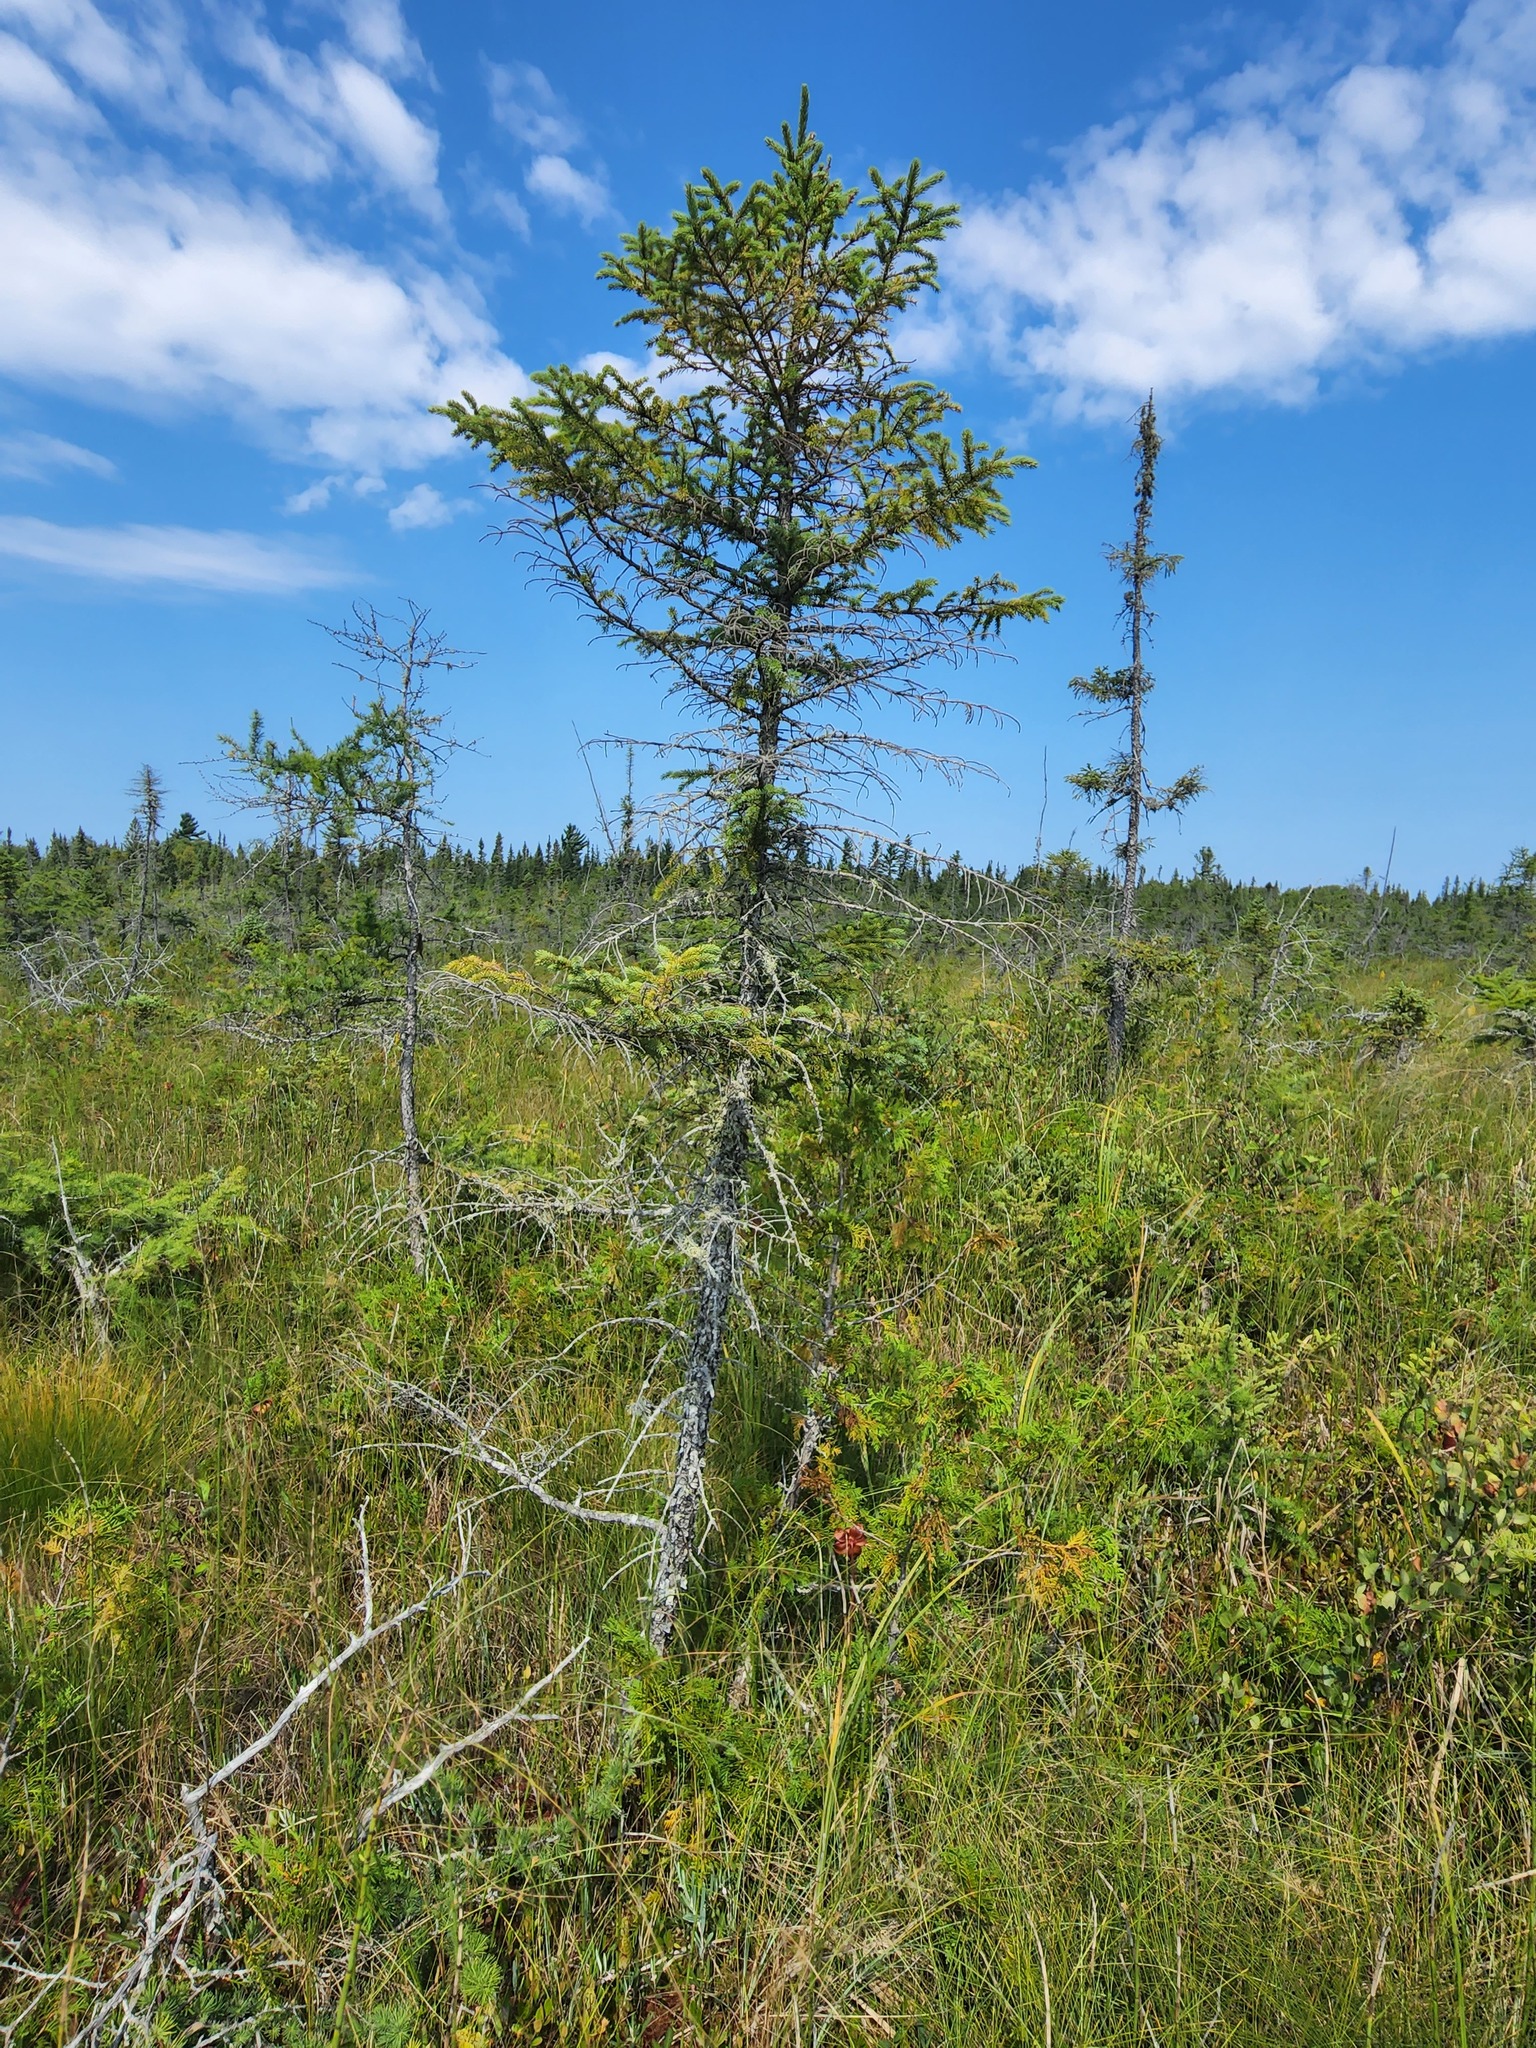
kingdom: Plantae
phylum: Tracheophyta
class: Pinopsida
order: Pinales
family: Pinaceae
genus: Picea
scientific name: Picea mariana
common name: Black spruce
